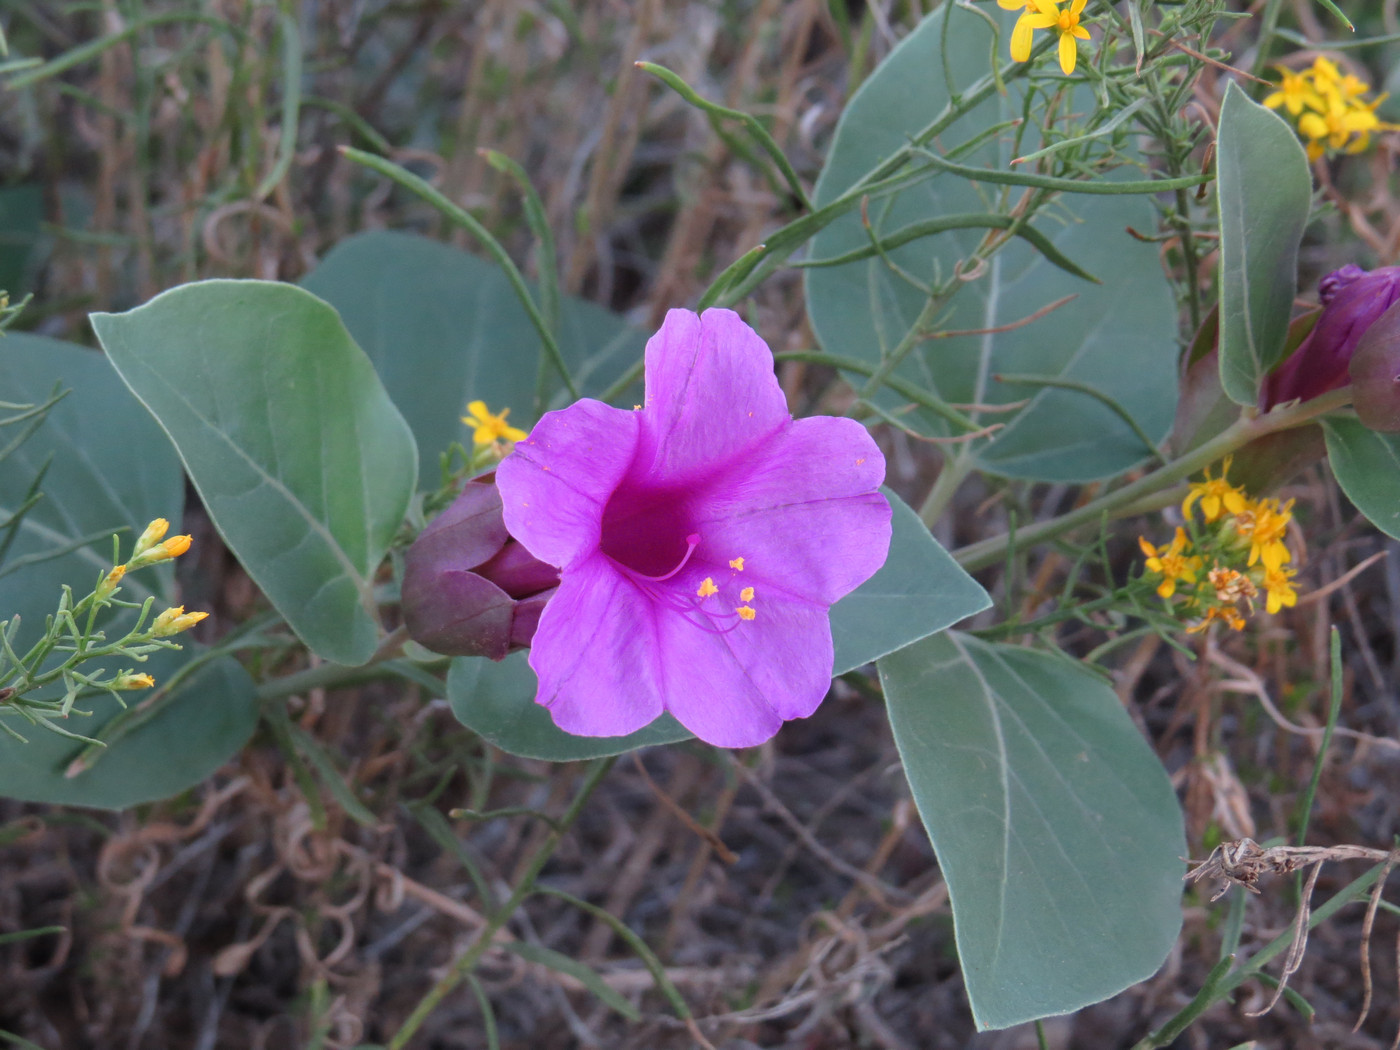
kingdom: Plantae
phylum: Tracheophyta
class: Magnoliopsida
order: Caryophyllales
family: Nyctaginaceae
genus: Mirabilis
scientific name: Mirabilis multiflora
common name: Froebel's four-o'clock
